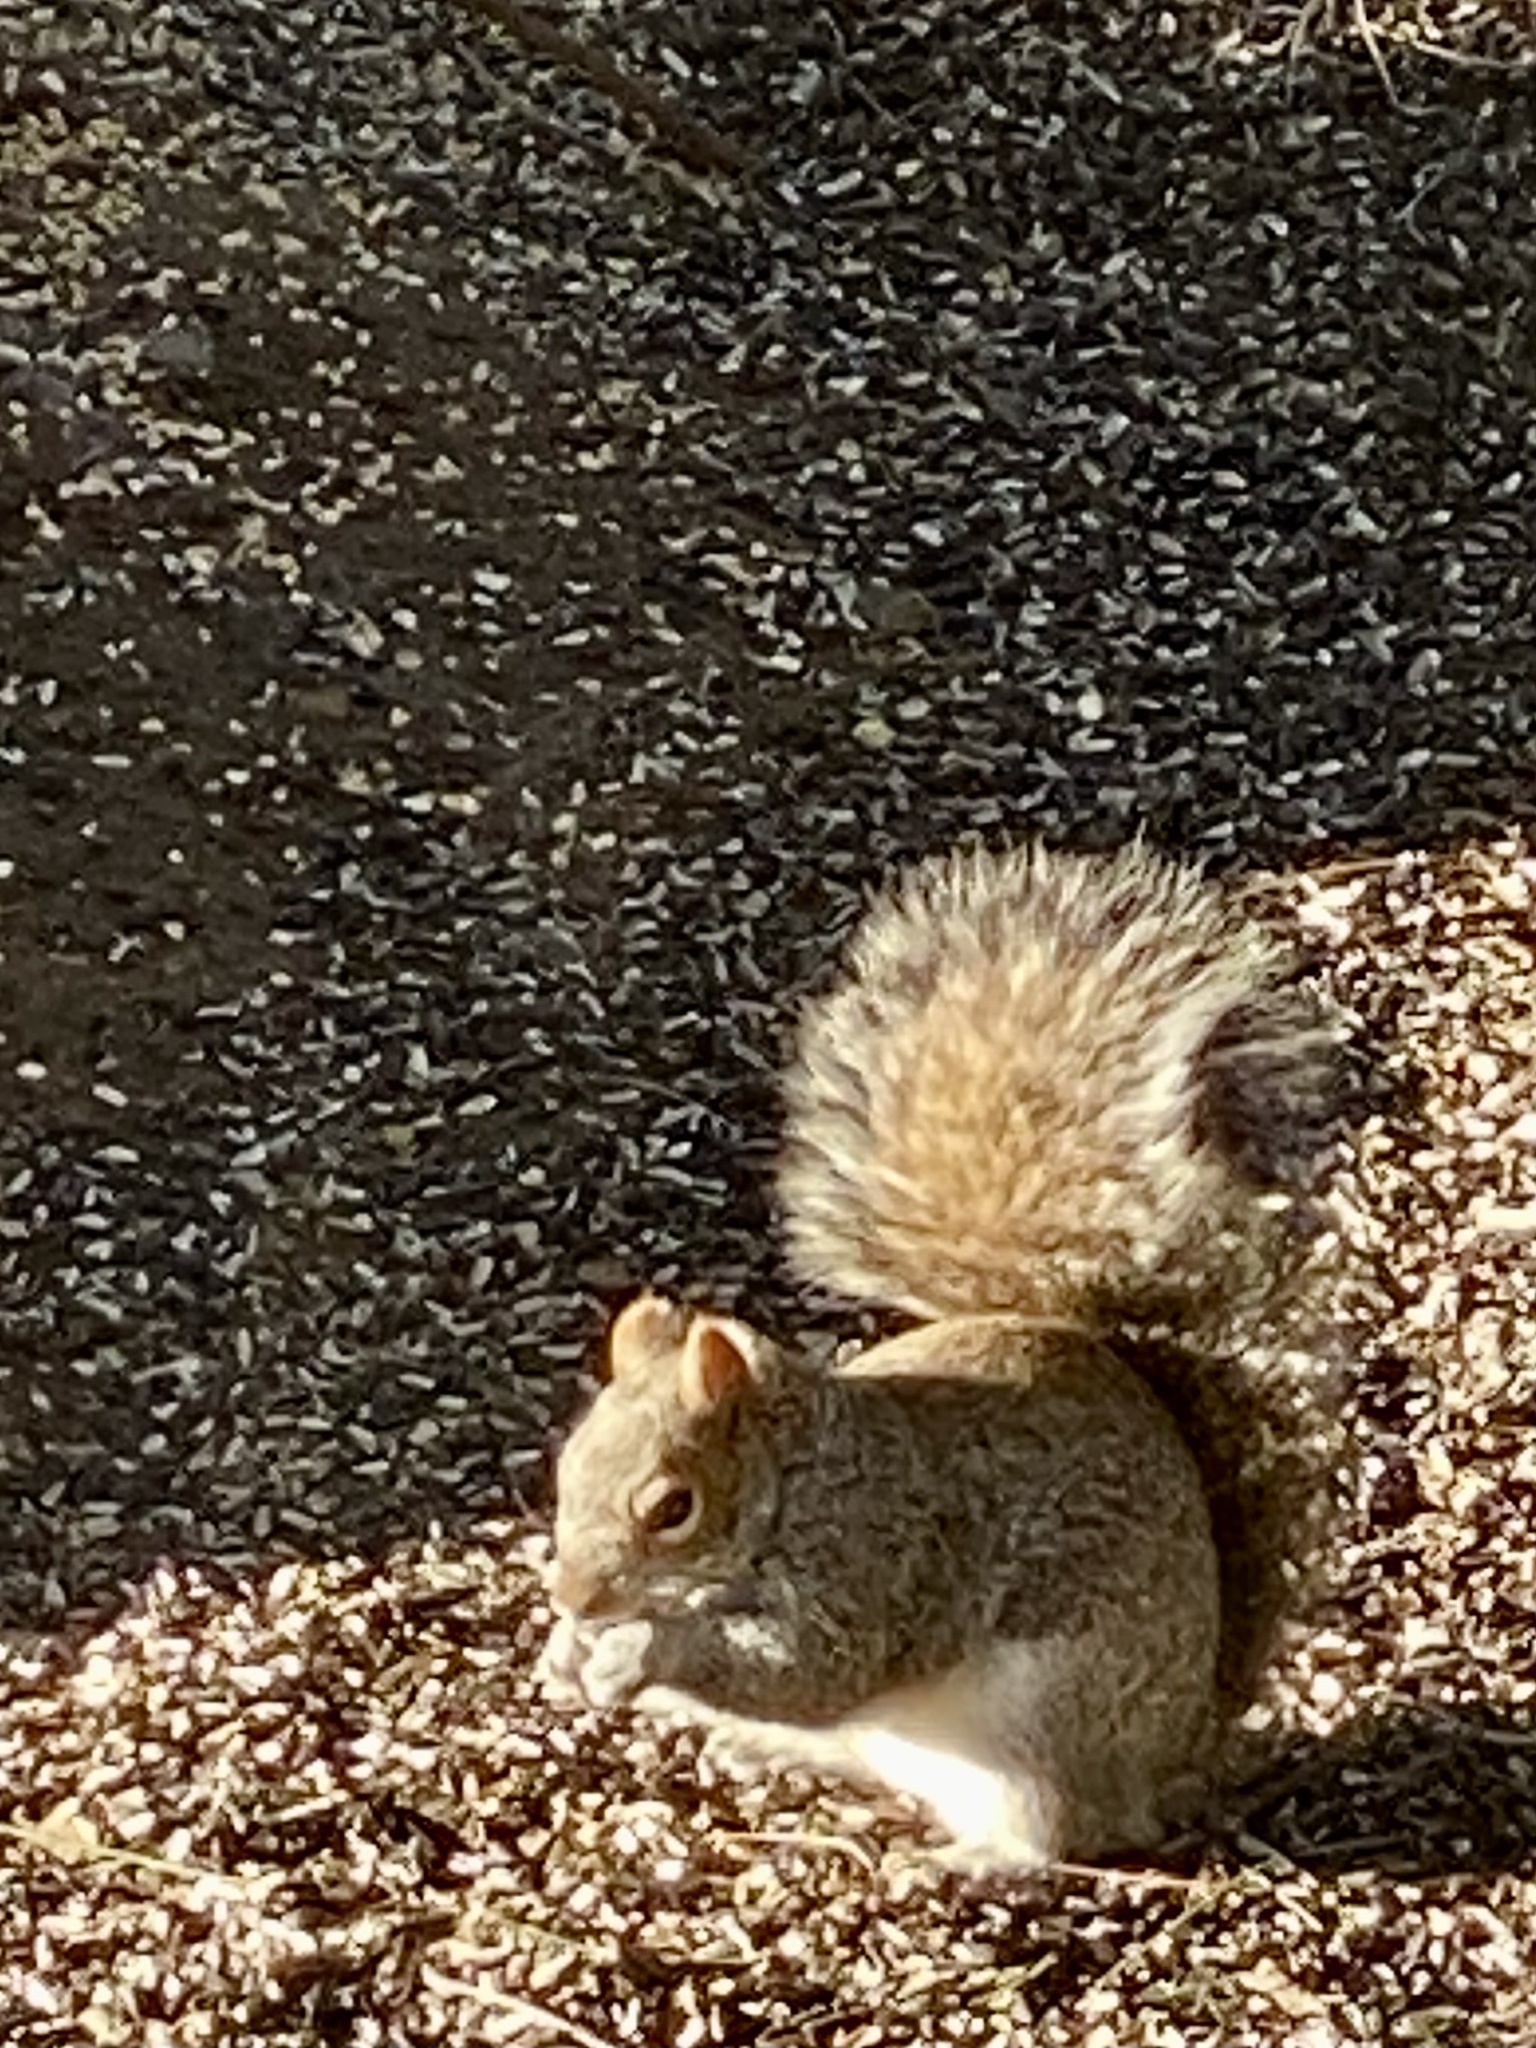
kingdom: Animalia
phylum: Chordata
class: Mammalia
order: Rodentia
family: Sciuridae
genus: Sciurus
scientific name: Sciurus carolinensis
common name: Eastern gray squirrel
